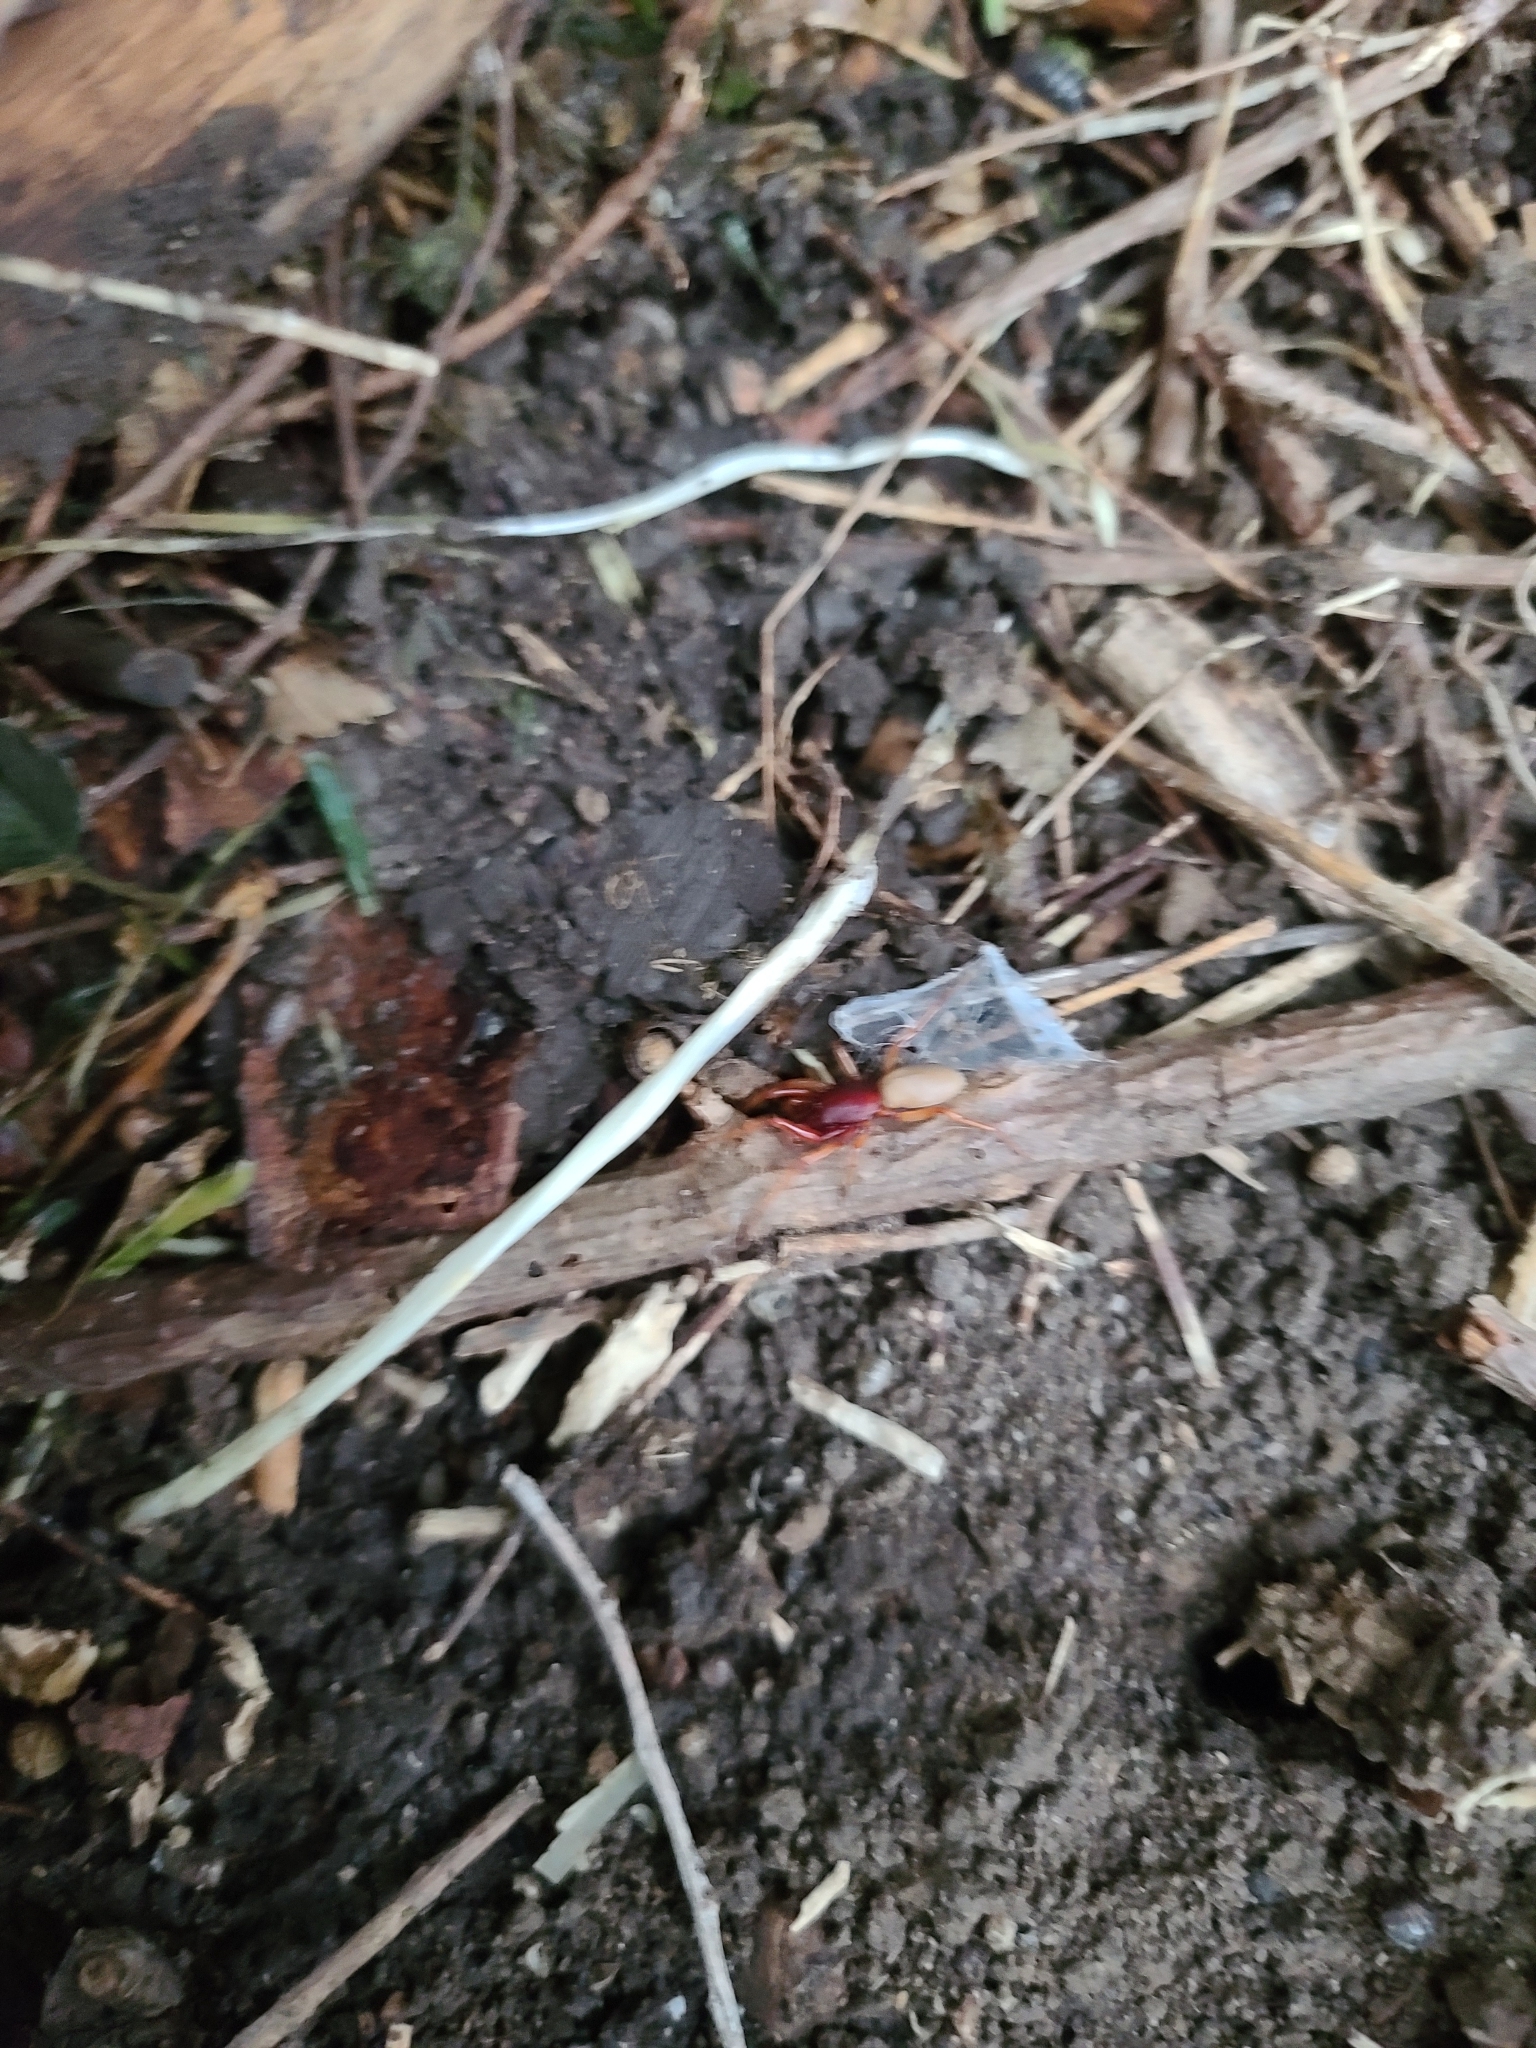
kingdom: Animalia
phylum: Arthropoda
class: Arachnida
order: Araneae
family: Dysderidae
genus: Dysdera
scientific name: Dysdera crocata
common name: Woodlouse spider
